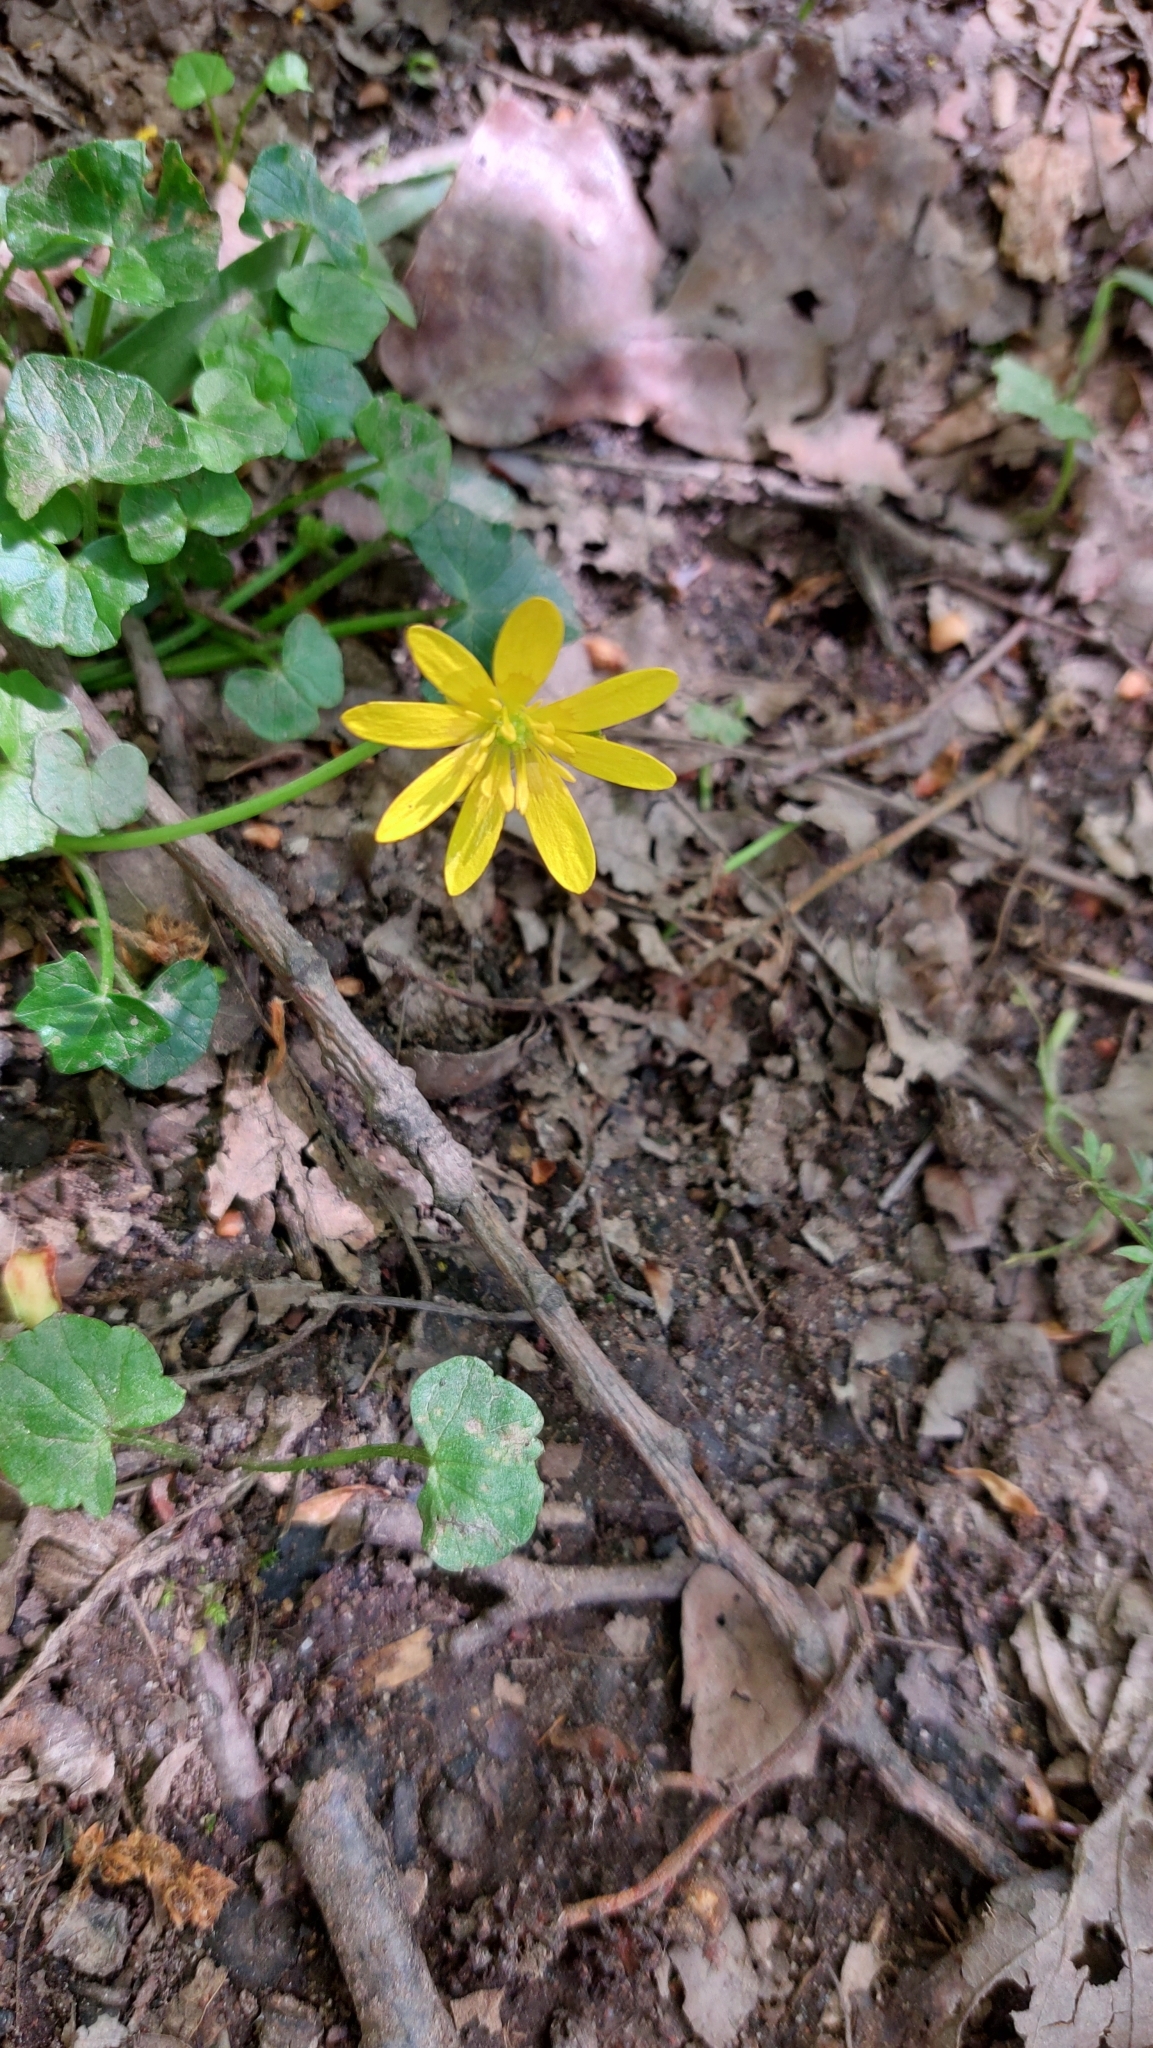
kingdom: Plantae
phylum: Tracheophyta
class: Magnoliopsida
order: Ranunculales
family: Ranunculaceae
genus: Ficaria
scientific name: Ficaria verna
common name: Lesser celandine
